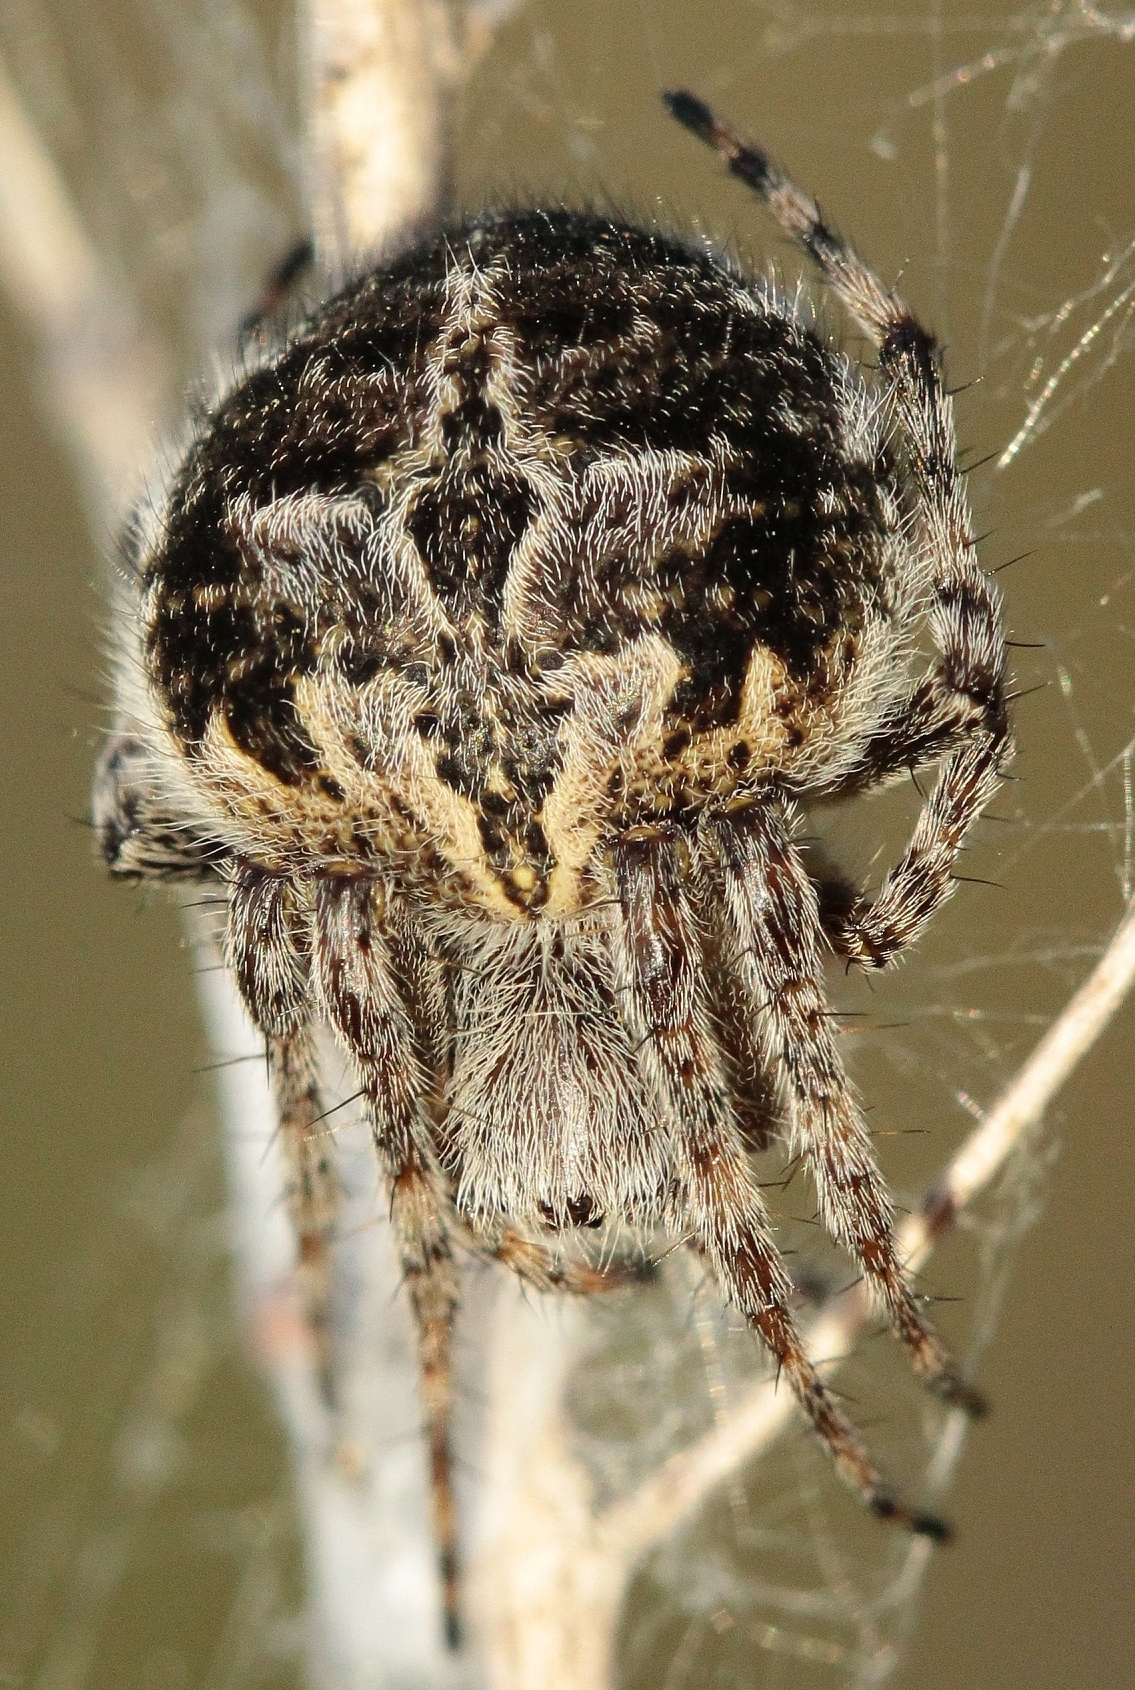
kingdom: Animalia
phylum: Arthropoda
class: Arachnida
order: Araneae
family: Araneidae
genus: Agalenatea
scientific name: Agalenatea redii
